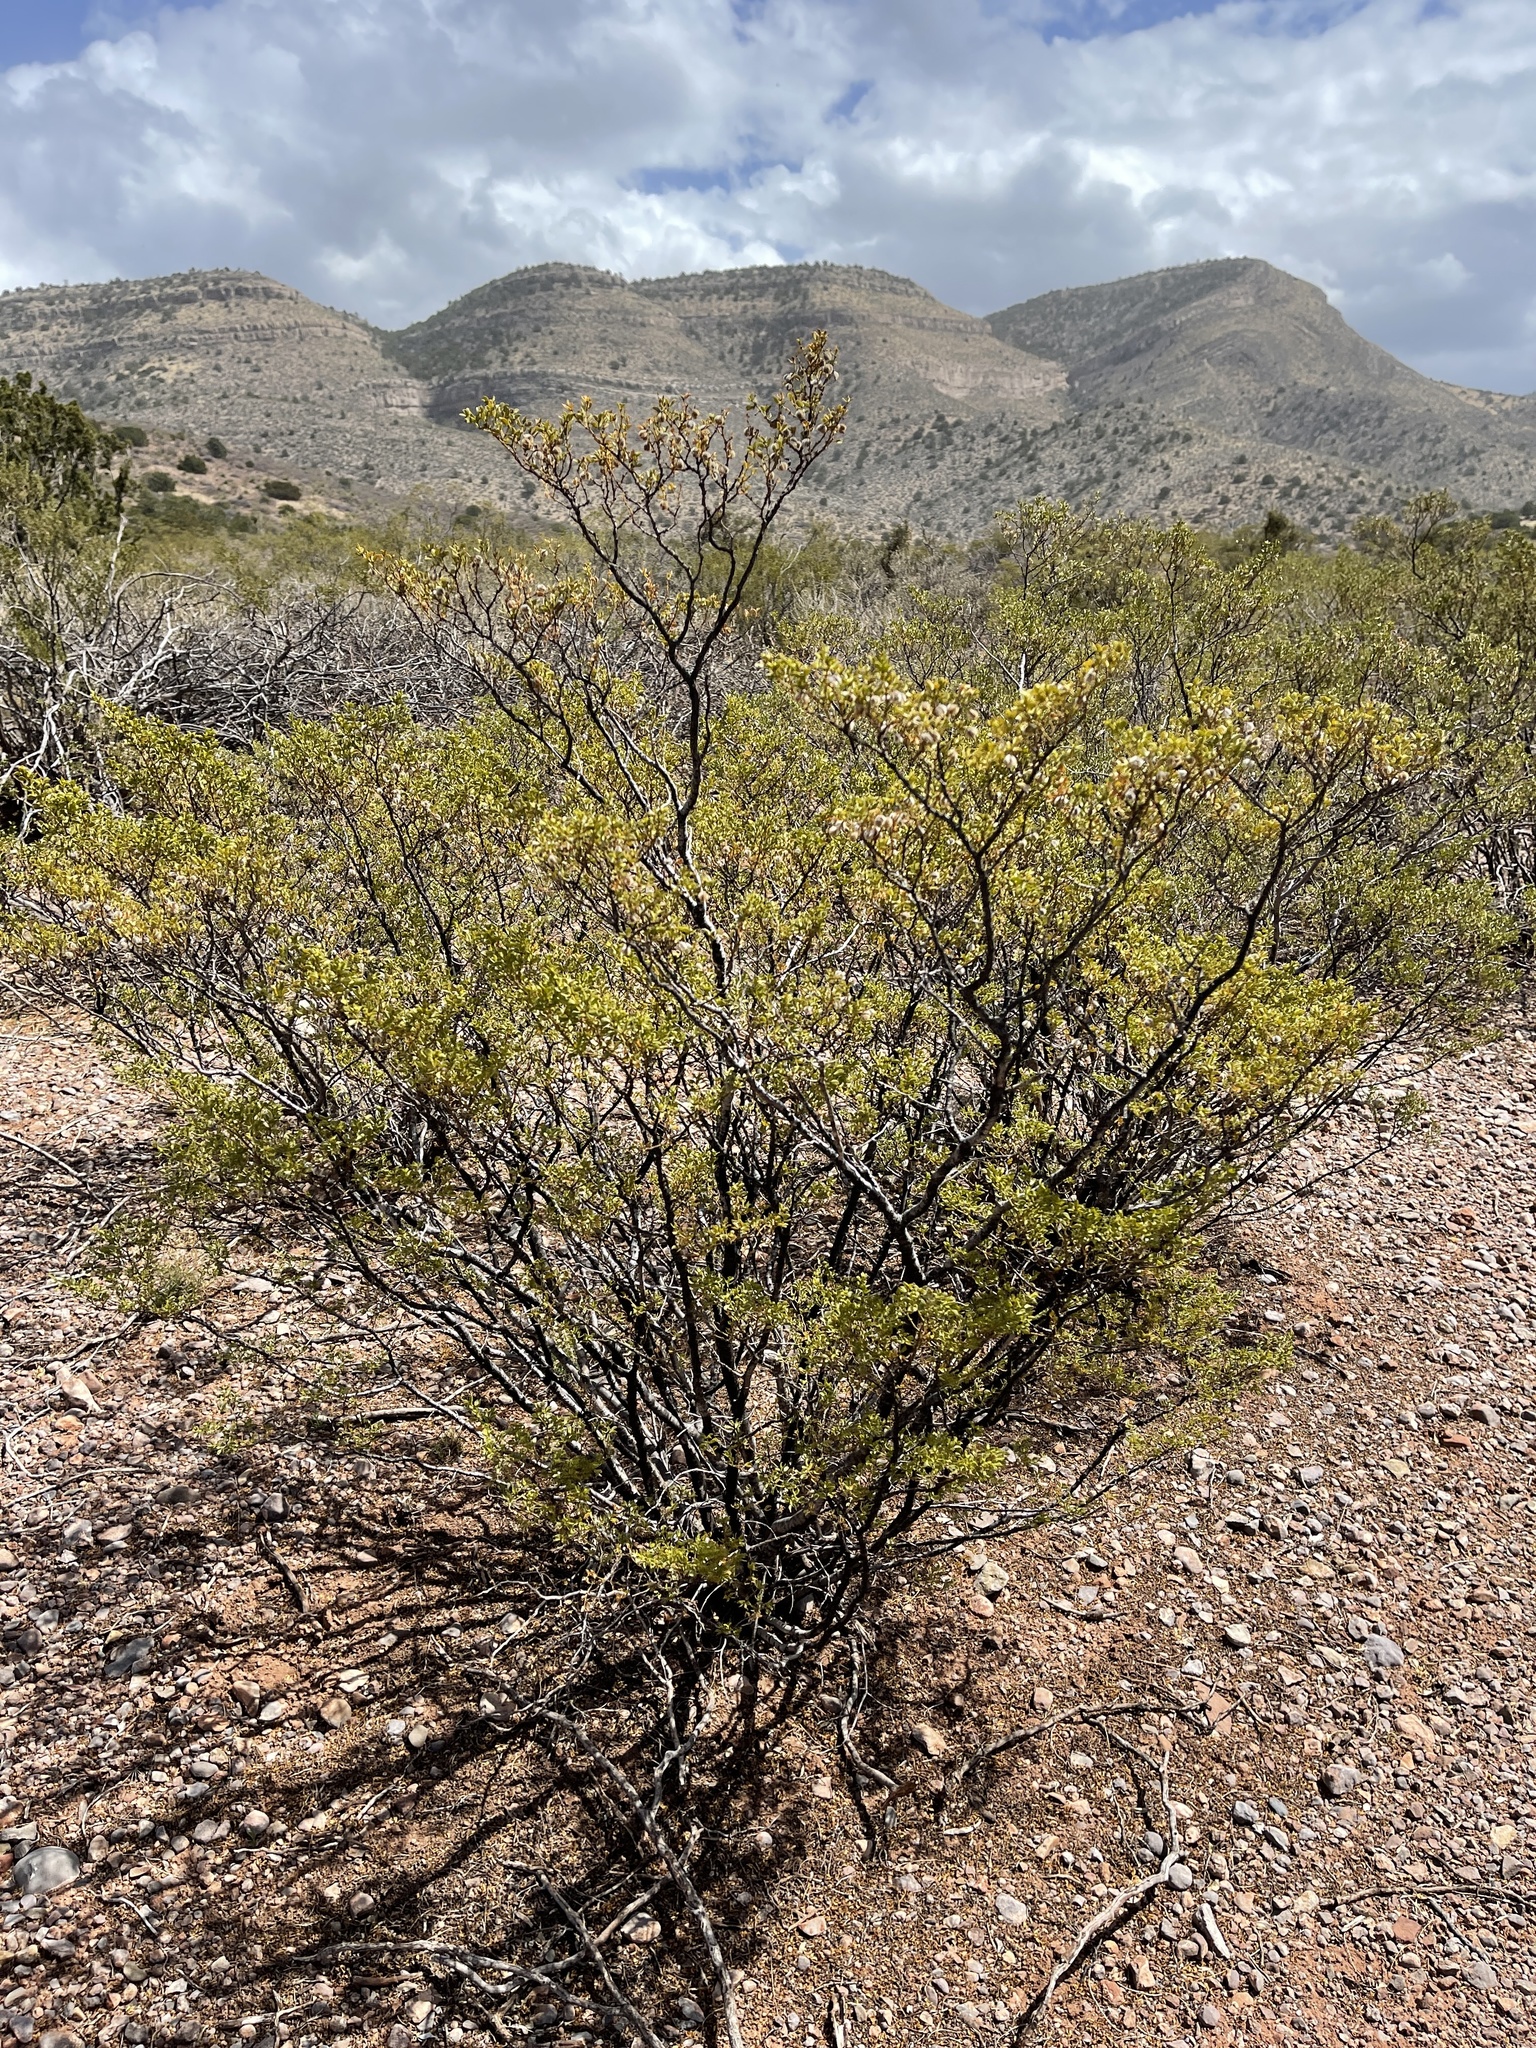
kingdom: Plantae
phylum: Tracheophyta
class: Magnoliopsida
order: Zygophyllales
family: Zygophyllaceae
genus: Larrea
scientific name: Larrea tridentata
